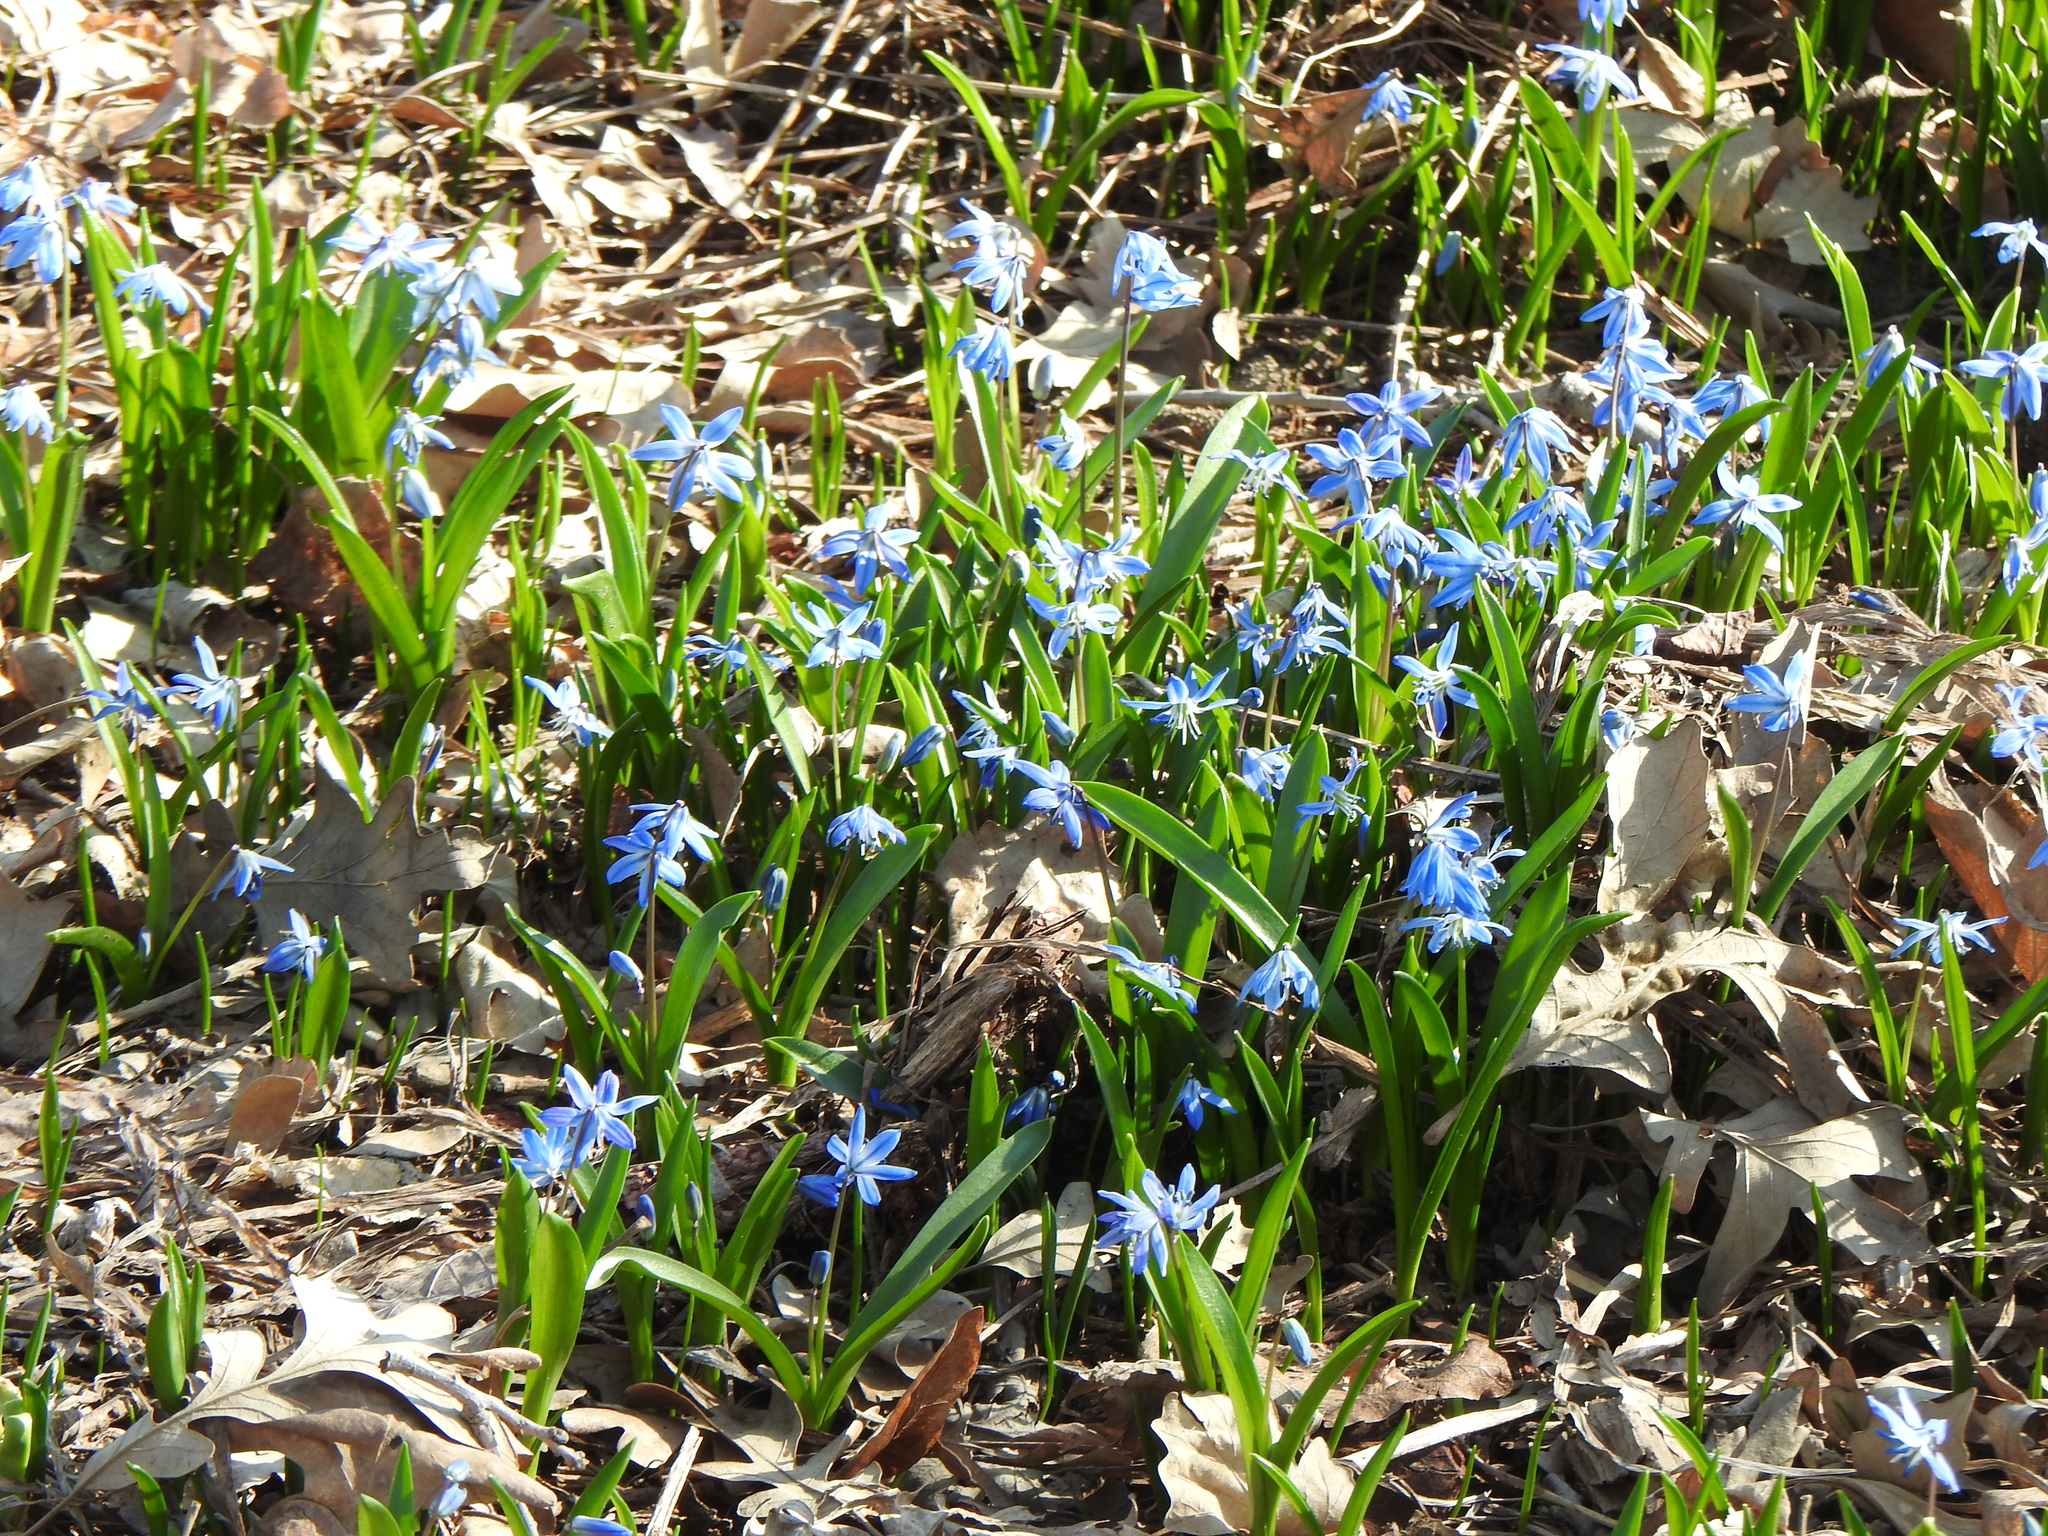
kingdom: Plantae
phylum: Tracheophyta
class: Liliopsida
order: Asparagales
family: Asparagaceae
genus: Scilla
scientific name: Scilla siberica
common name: Siberian squill
